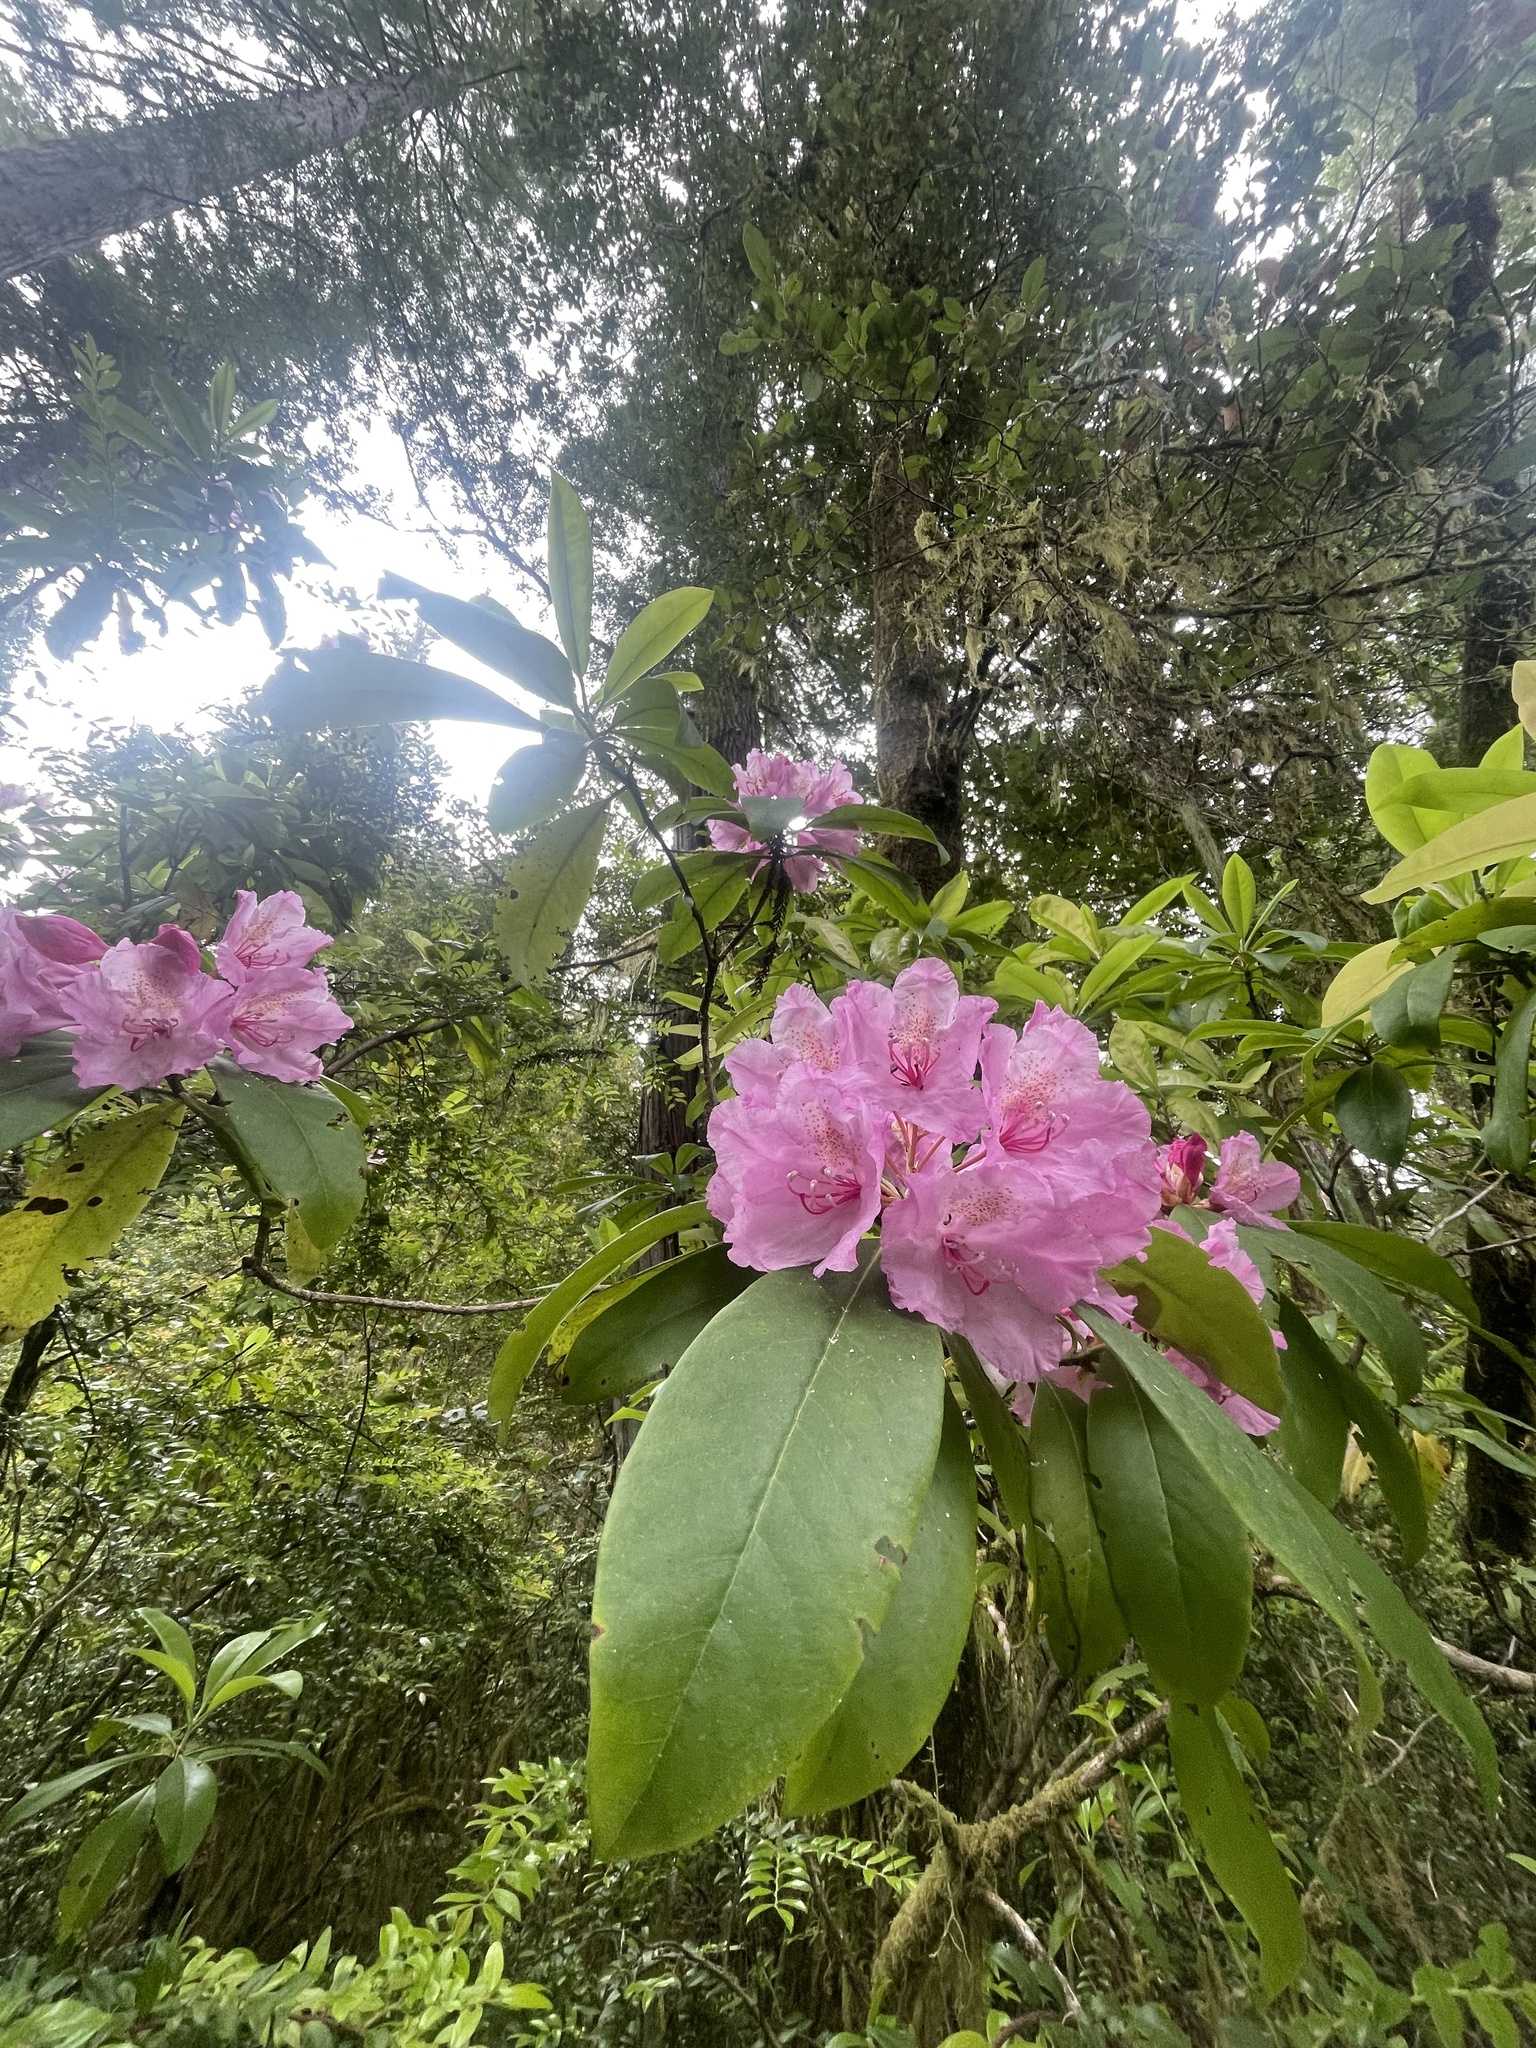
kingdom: Plantae
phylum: Tracheophyta
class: Magnoliopsida
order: Ericales
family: Ericaceae
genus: Rhododendron
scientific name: Rhododendron macrophyllum
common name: California rose bay
